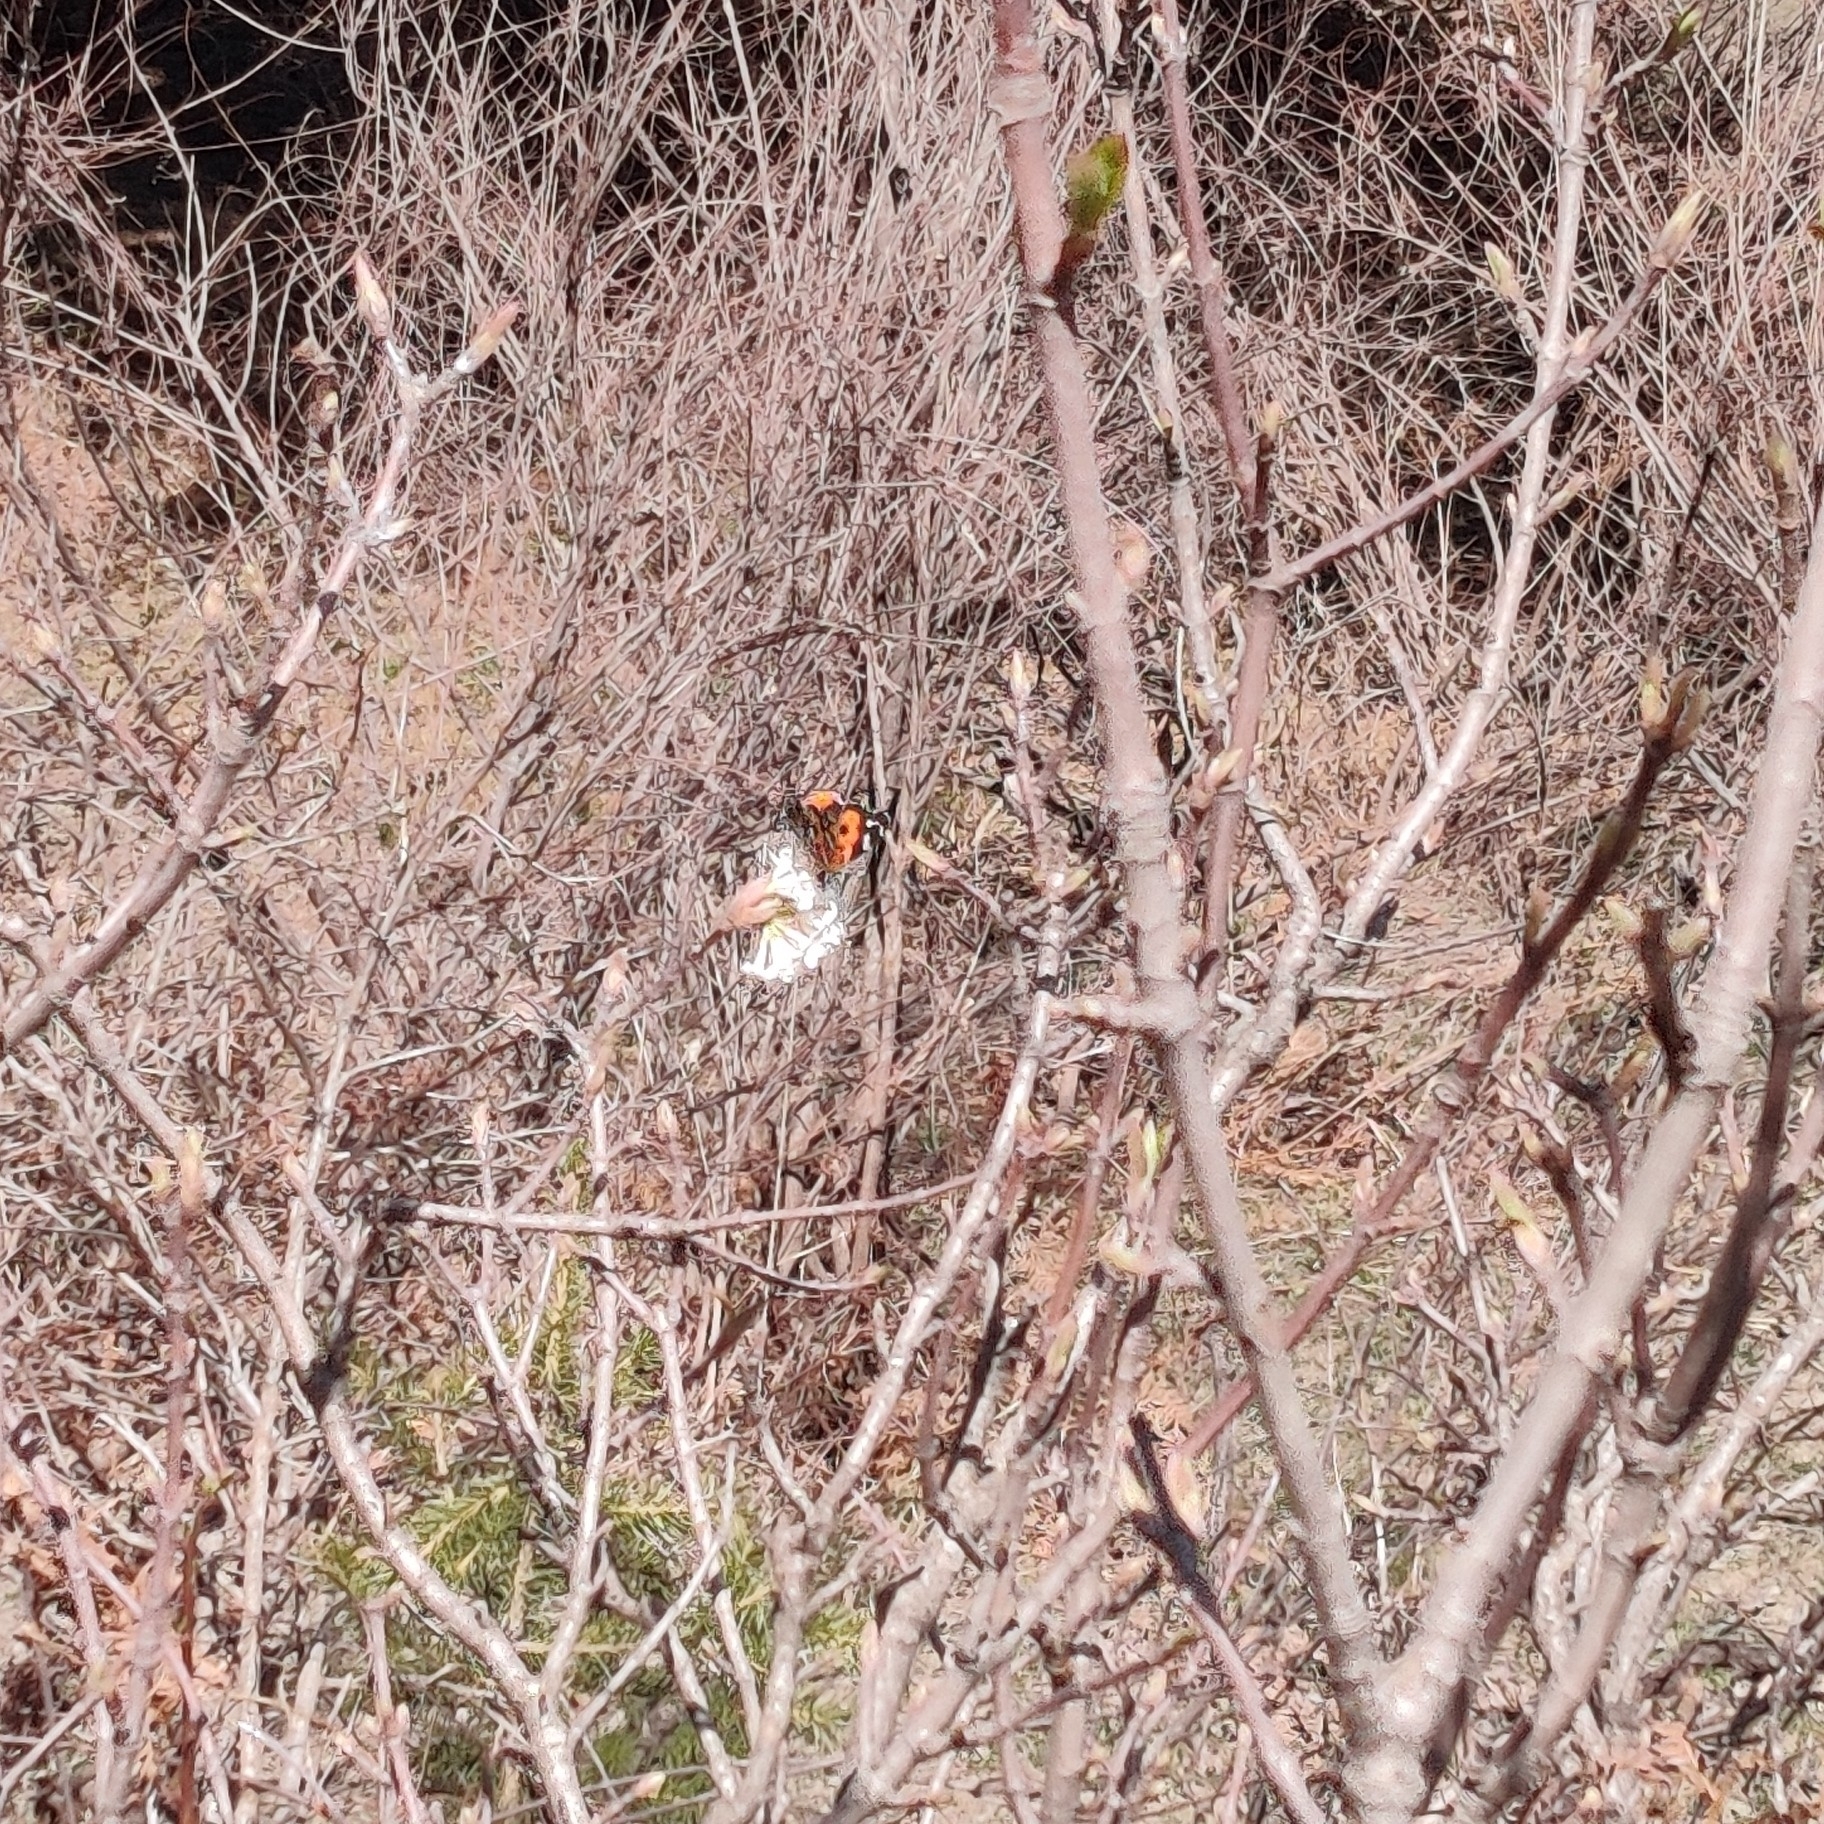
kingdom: Animalia
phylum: Arthropoda
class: Insecta
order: Lepidoptera
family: Nymphalidae
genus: Vanessa
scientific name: Vanessa indica
